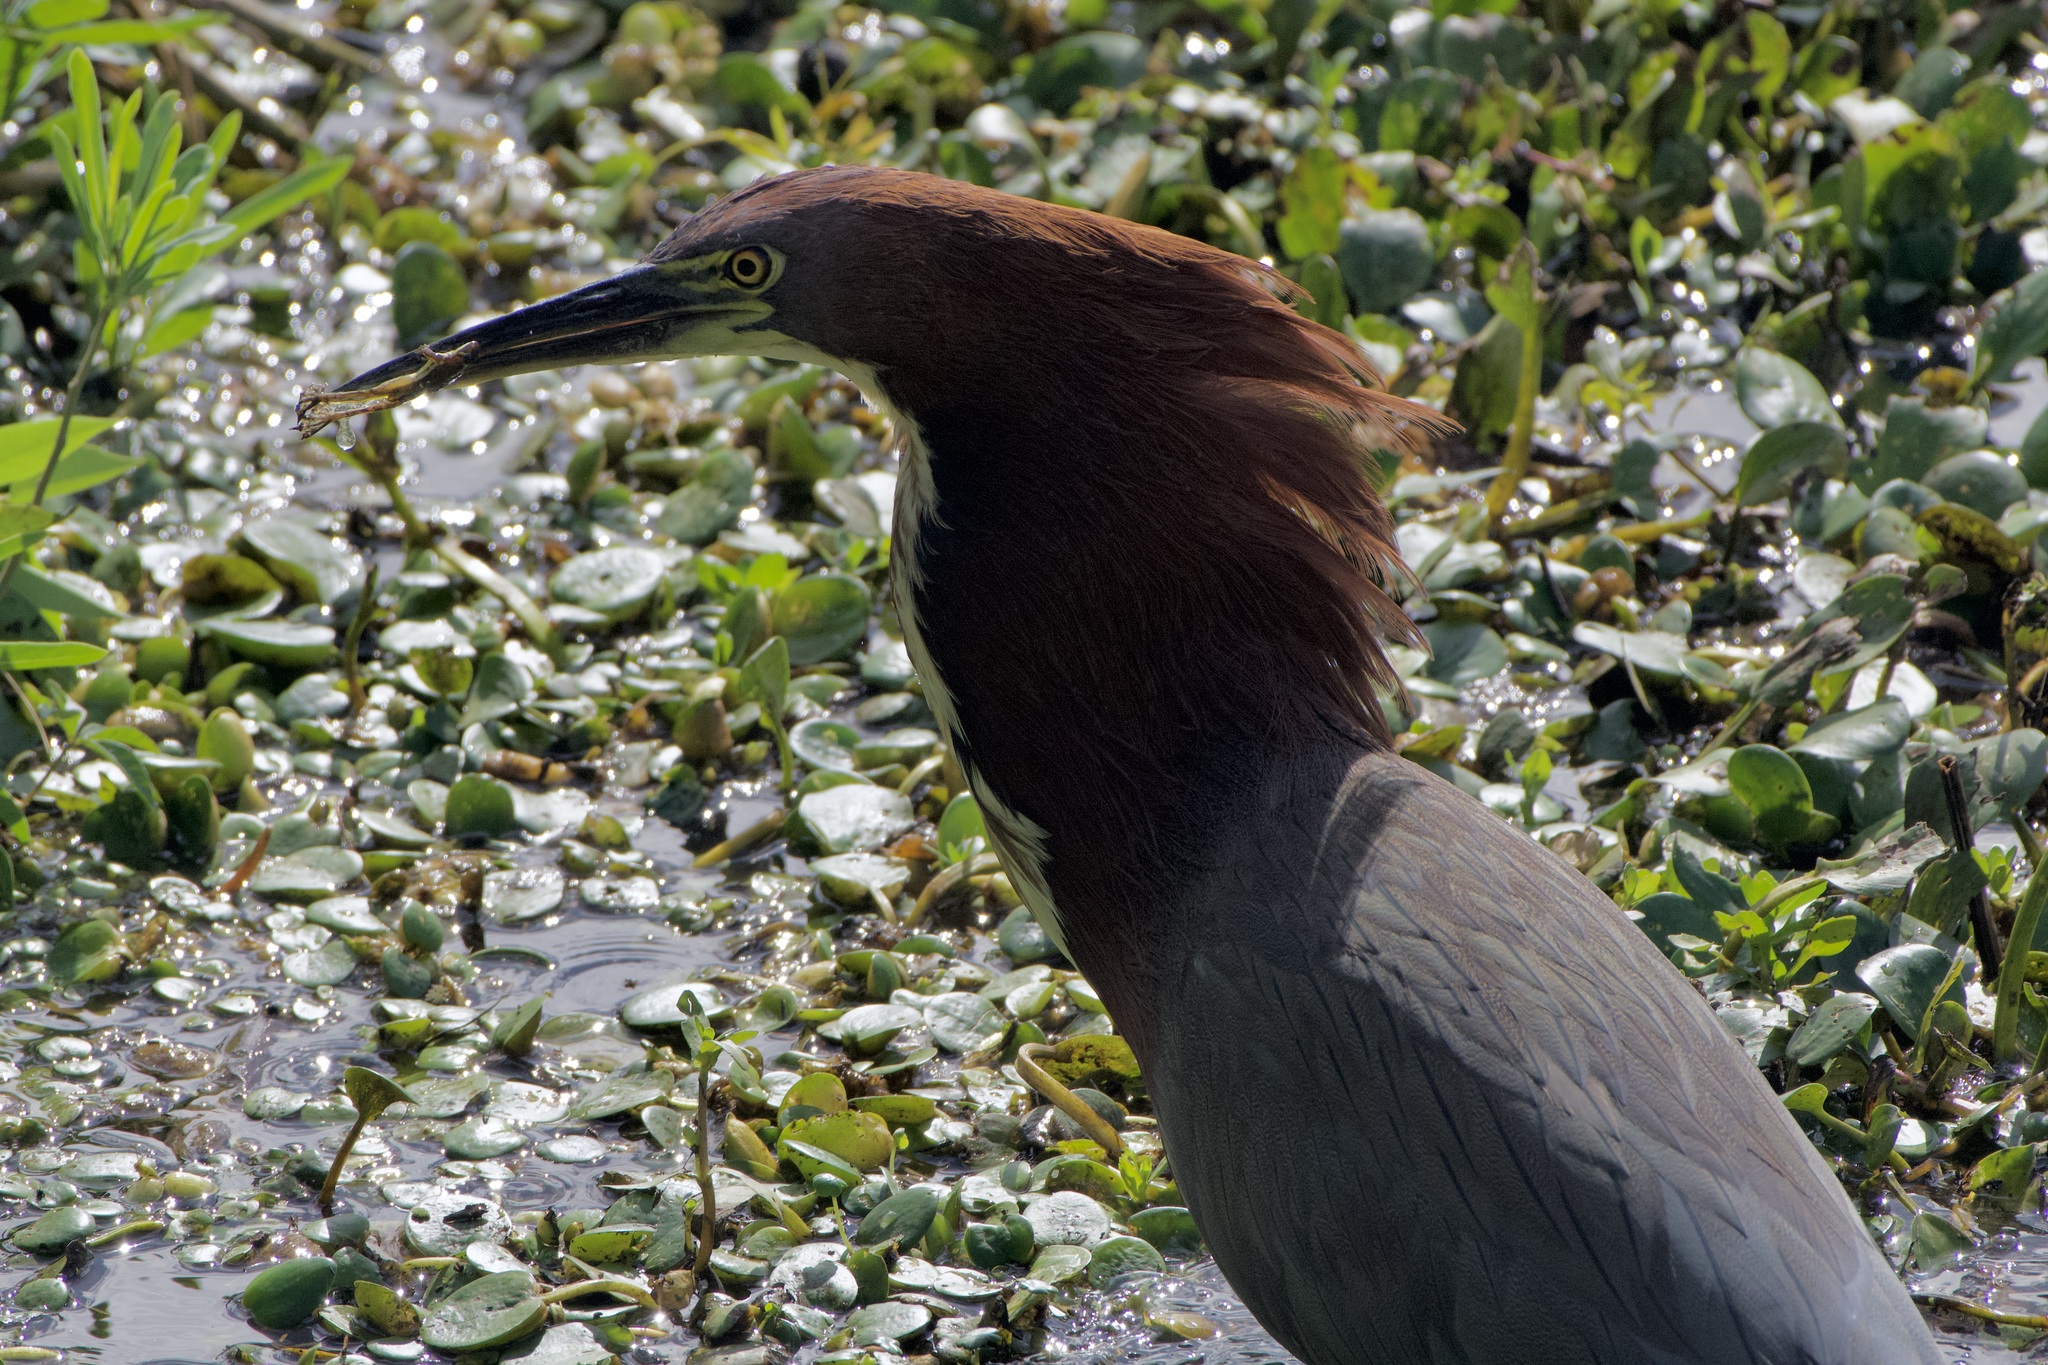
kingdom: Animalia
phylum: Chordata
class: Aves
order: Pelecaniformes
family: Ardeidae
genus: Tigrisoma
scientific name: Tigrisoma lineatum
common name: Rufescent tiger-heron
